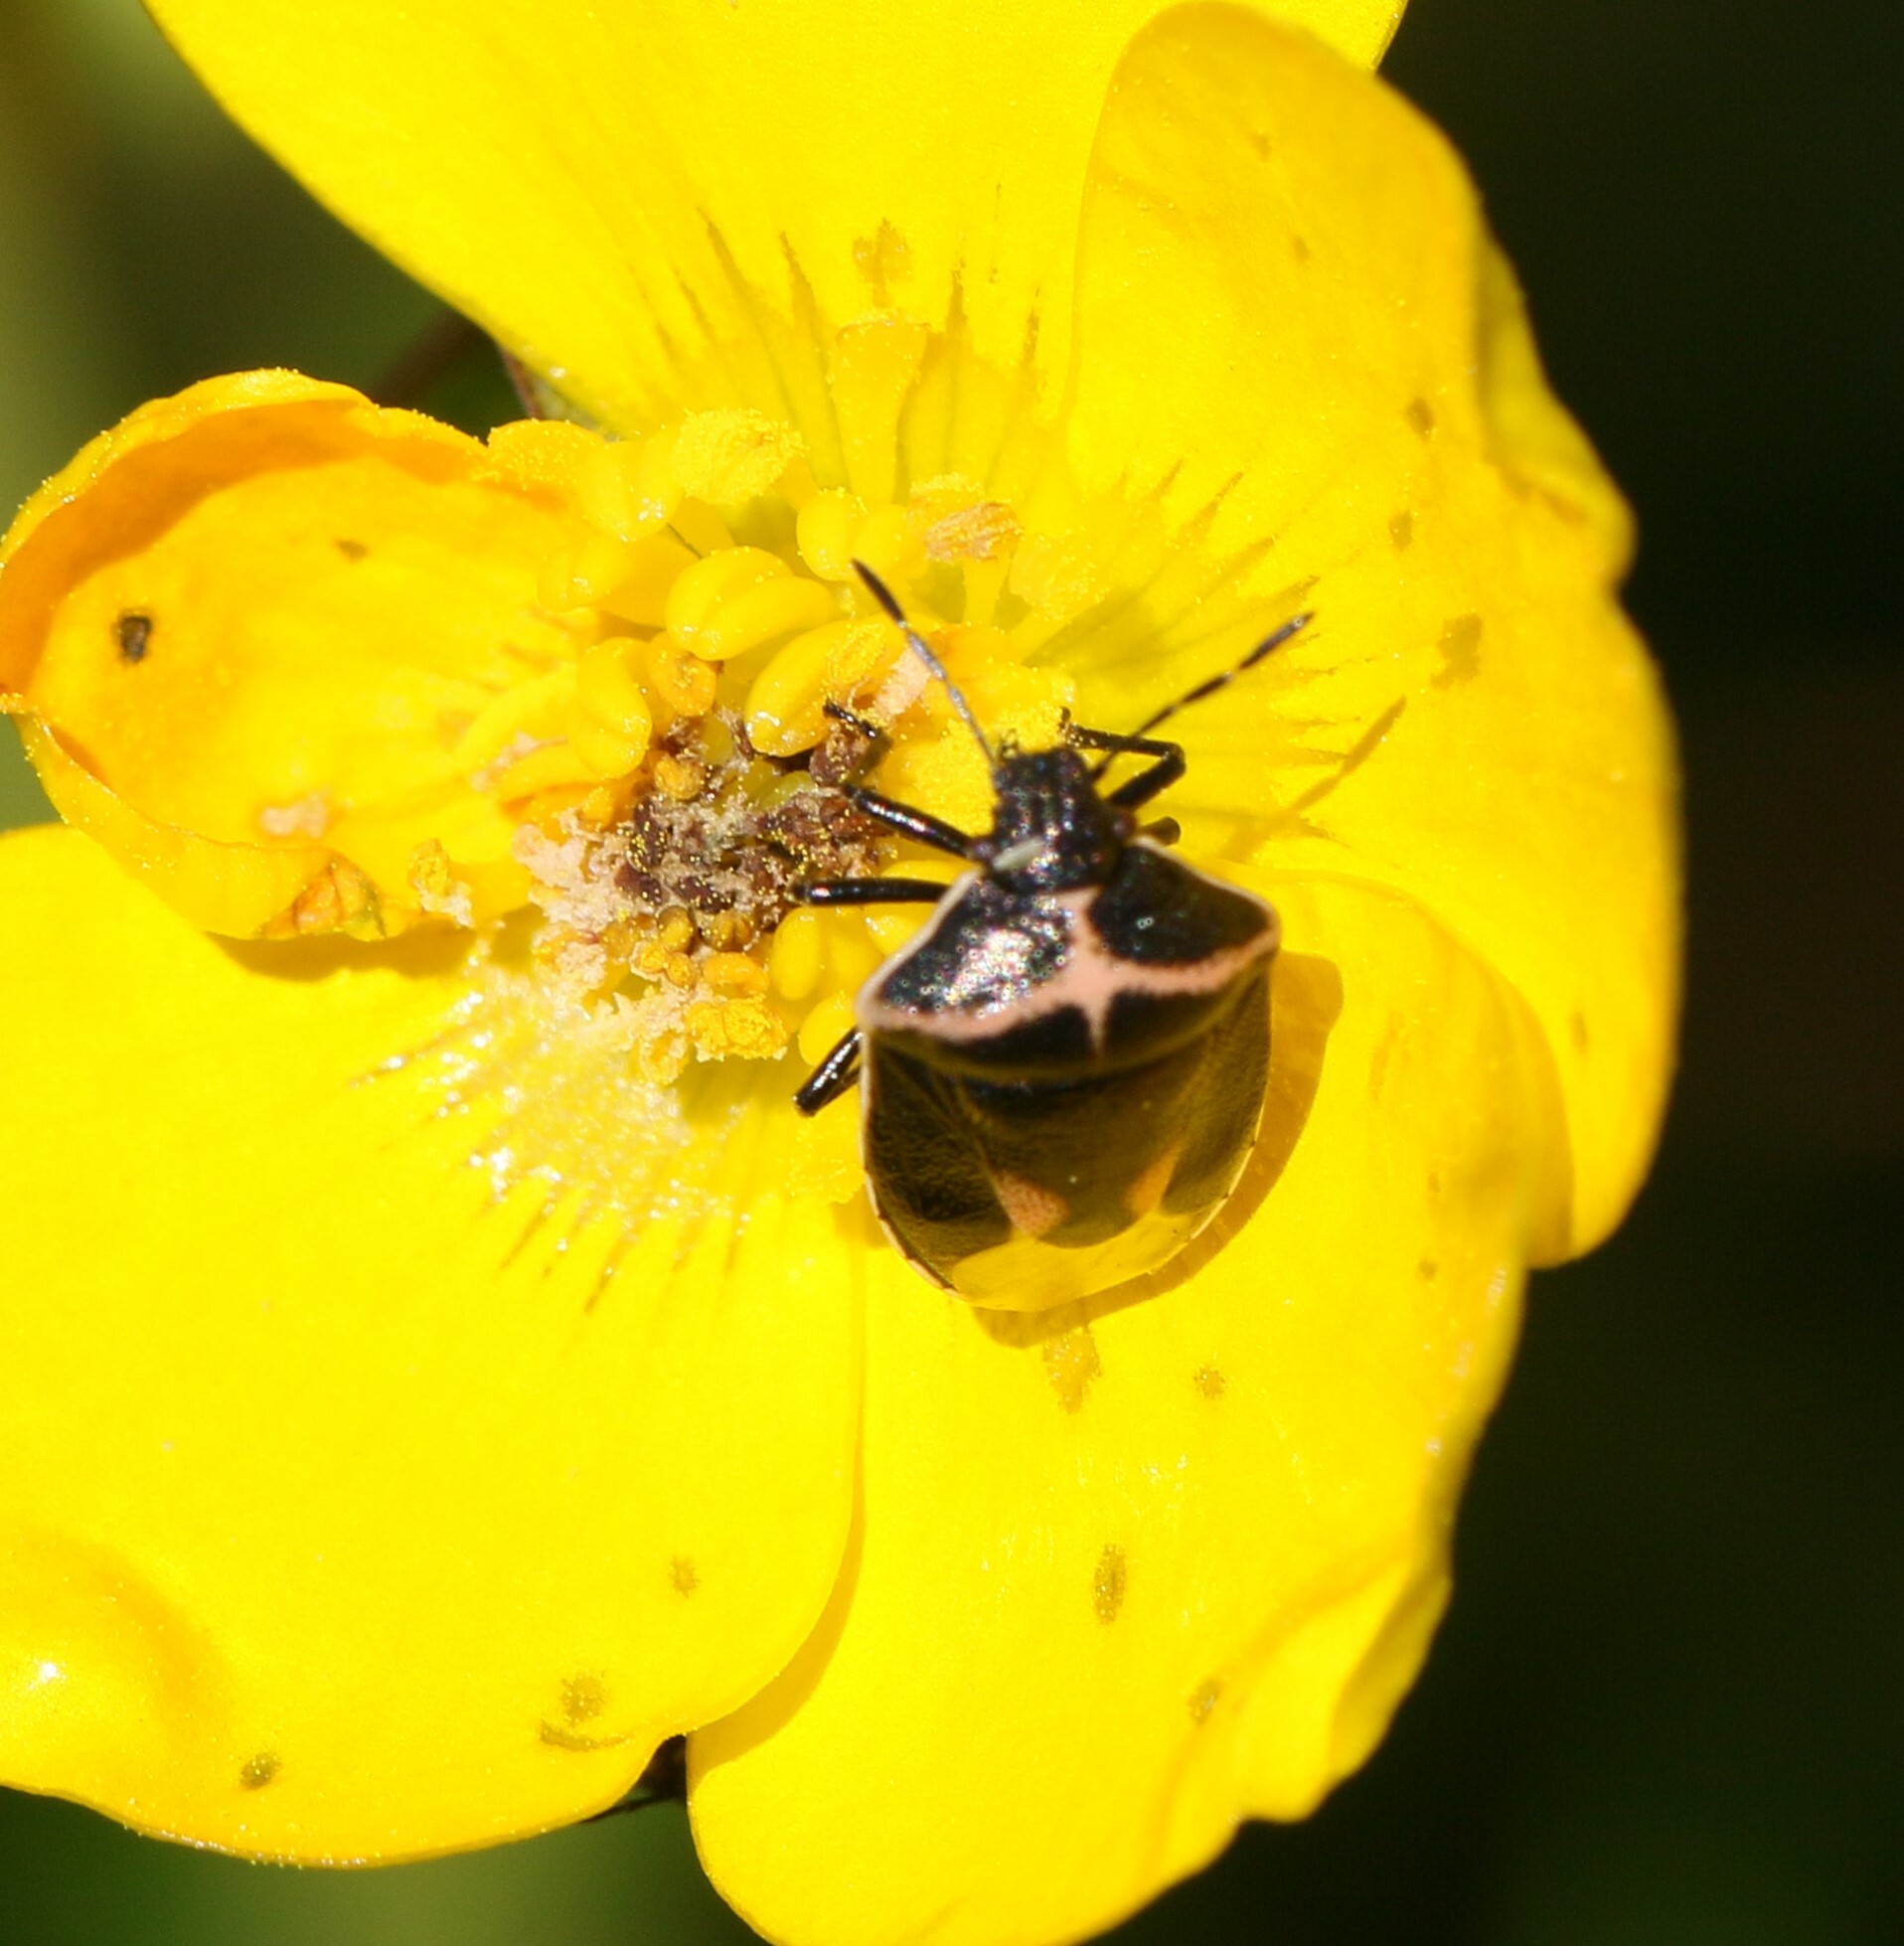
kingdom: Animalia
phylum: Arthropoda
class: Insecta
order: Hemiptera
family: Pentatomidae
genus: Cosmopepla
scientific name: Cosmopepla lintneriana
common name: Twice-stabbed stink bug
